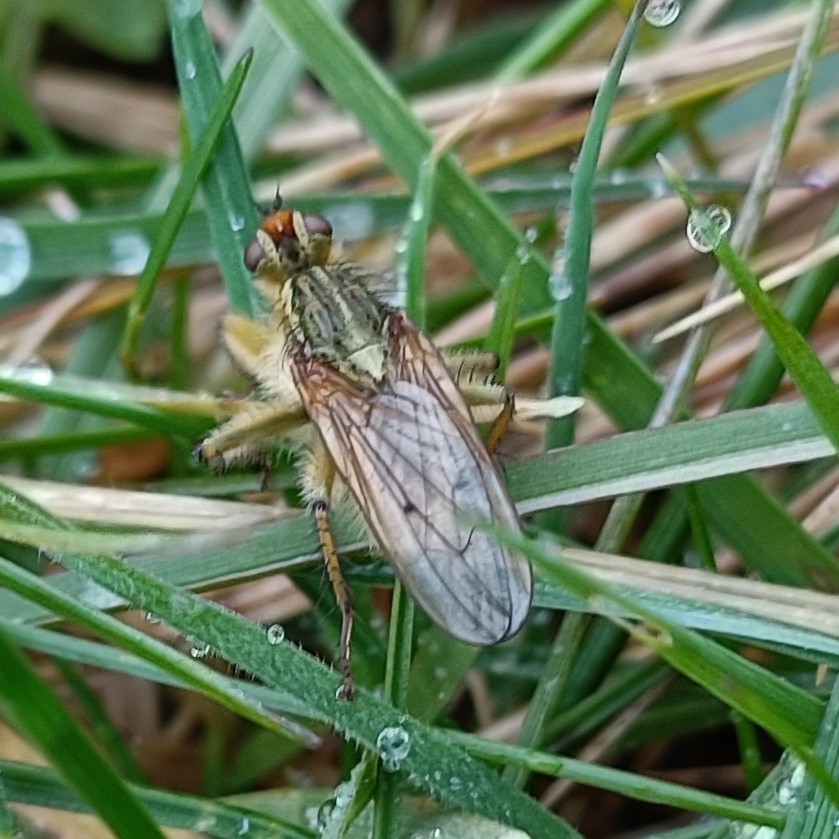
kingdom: Animalia
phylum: Arthropoda
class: Insecta
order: Diptera
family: Scathophagidae
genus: Scathophaga
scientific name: Scathophaga stercoraria
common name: Yellow dung fly
